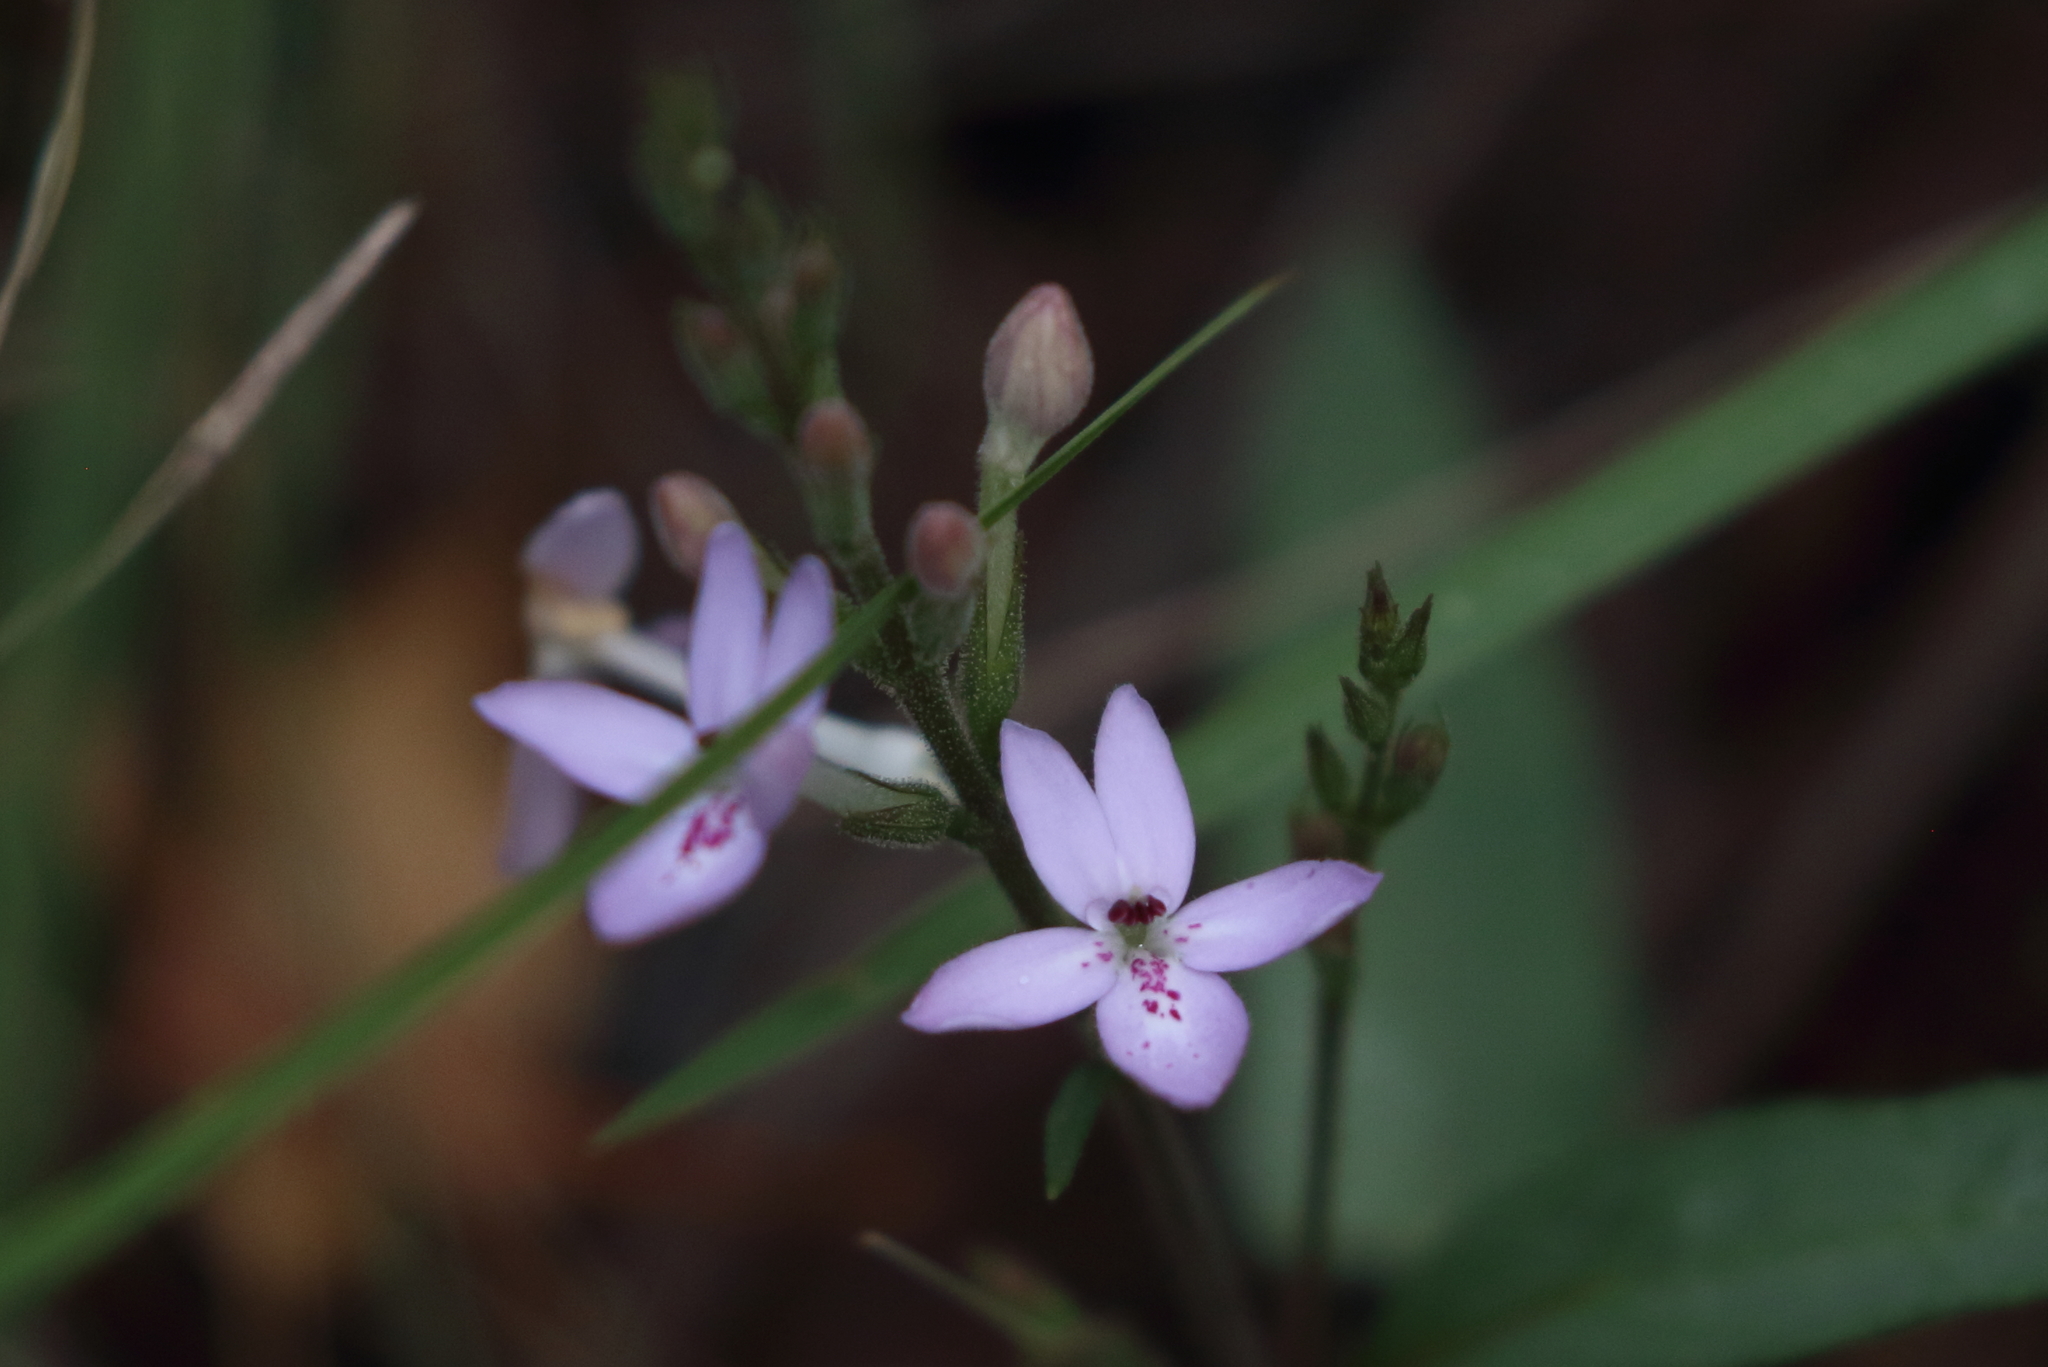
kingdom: Plantae
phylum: Tracheophyta
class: Magnoliopsida
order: Lamiales
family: Acanthaceae
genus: Pseuderanthemum
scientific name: Pseuderanthemum variabile
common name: Night and afternoon
